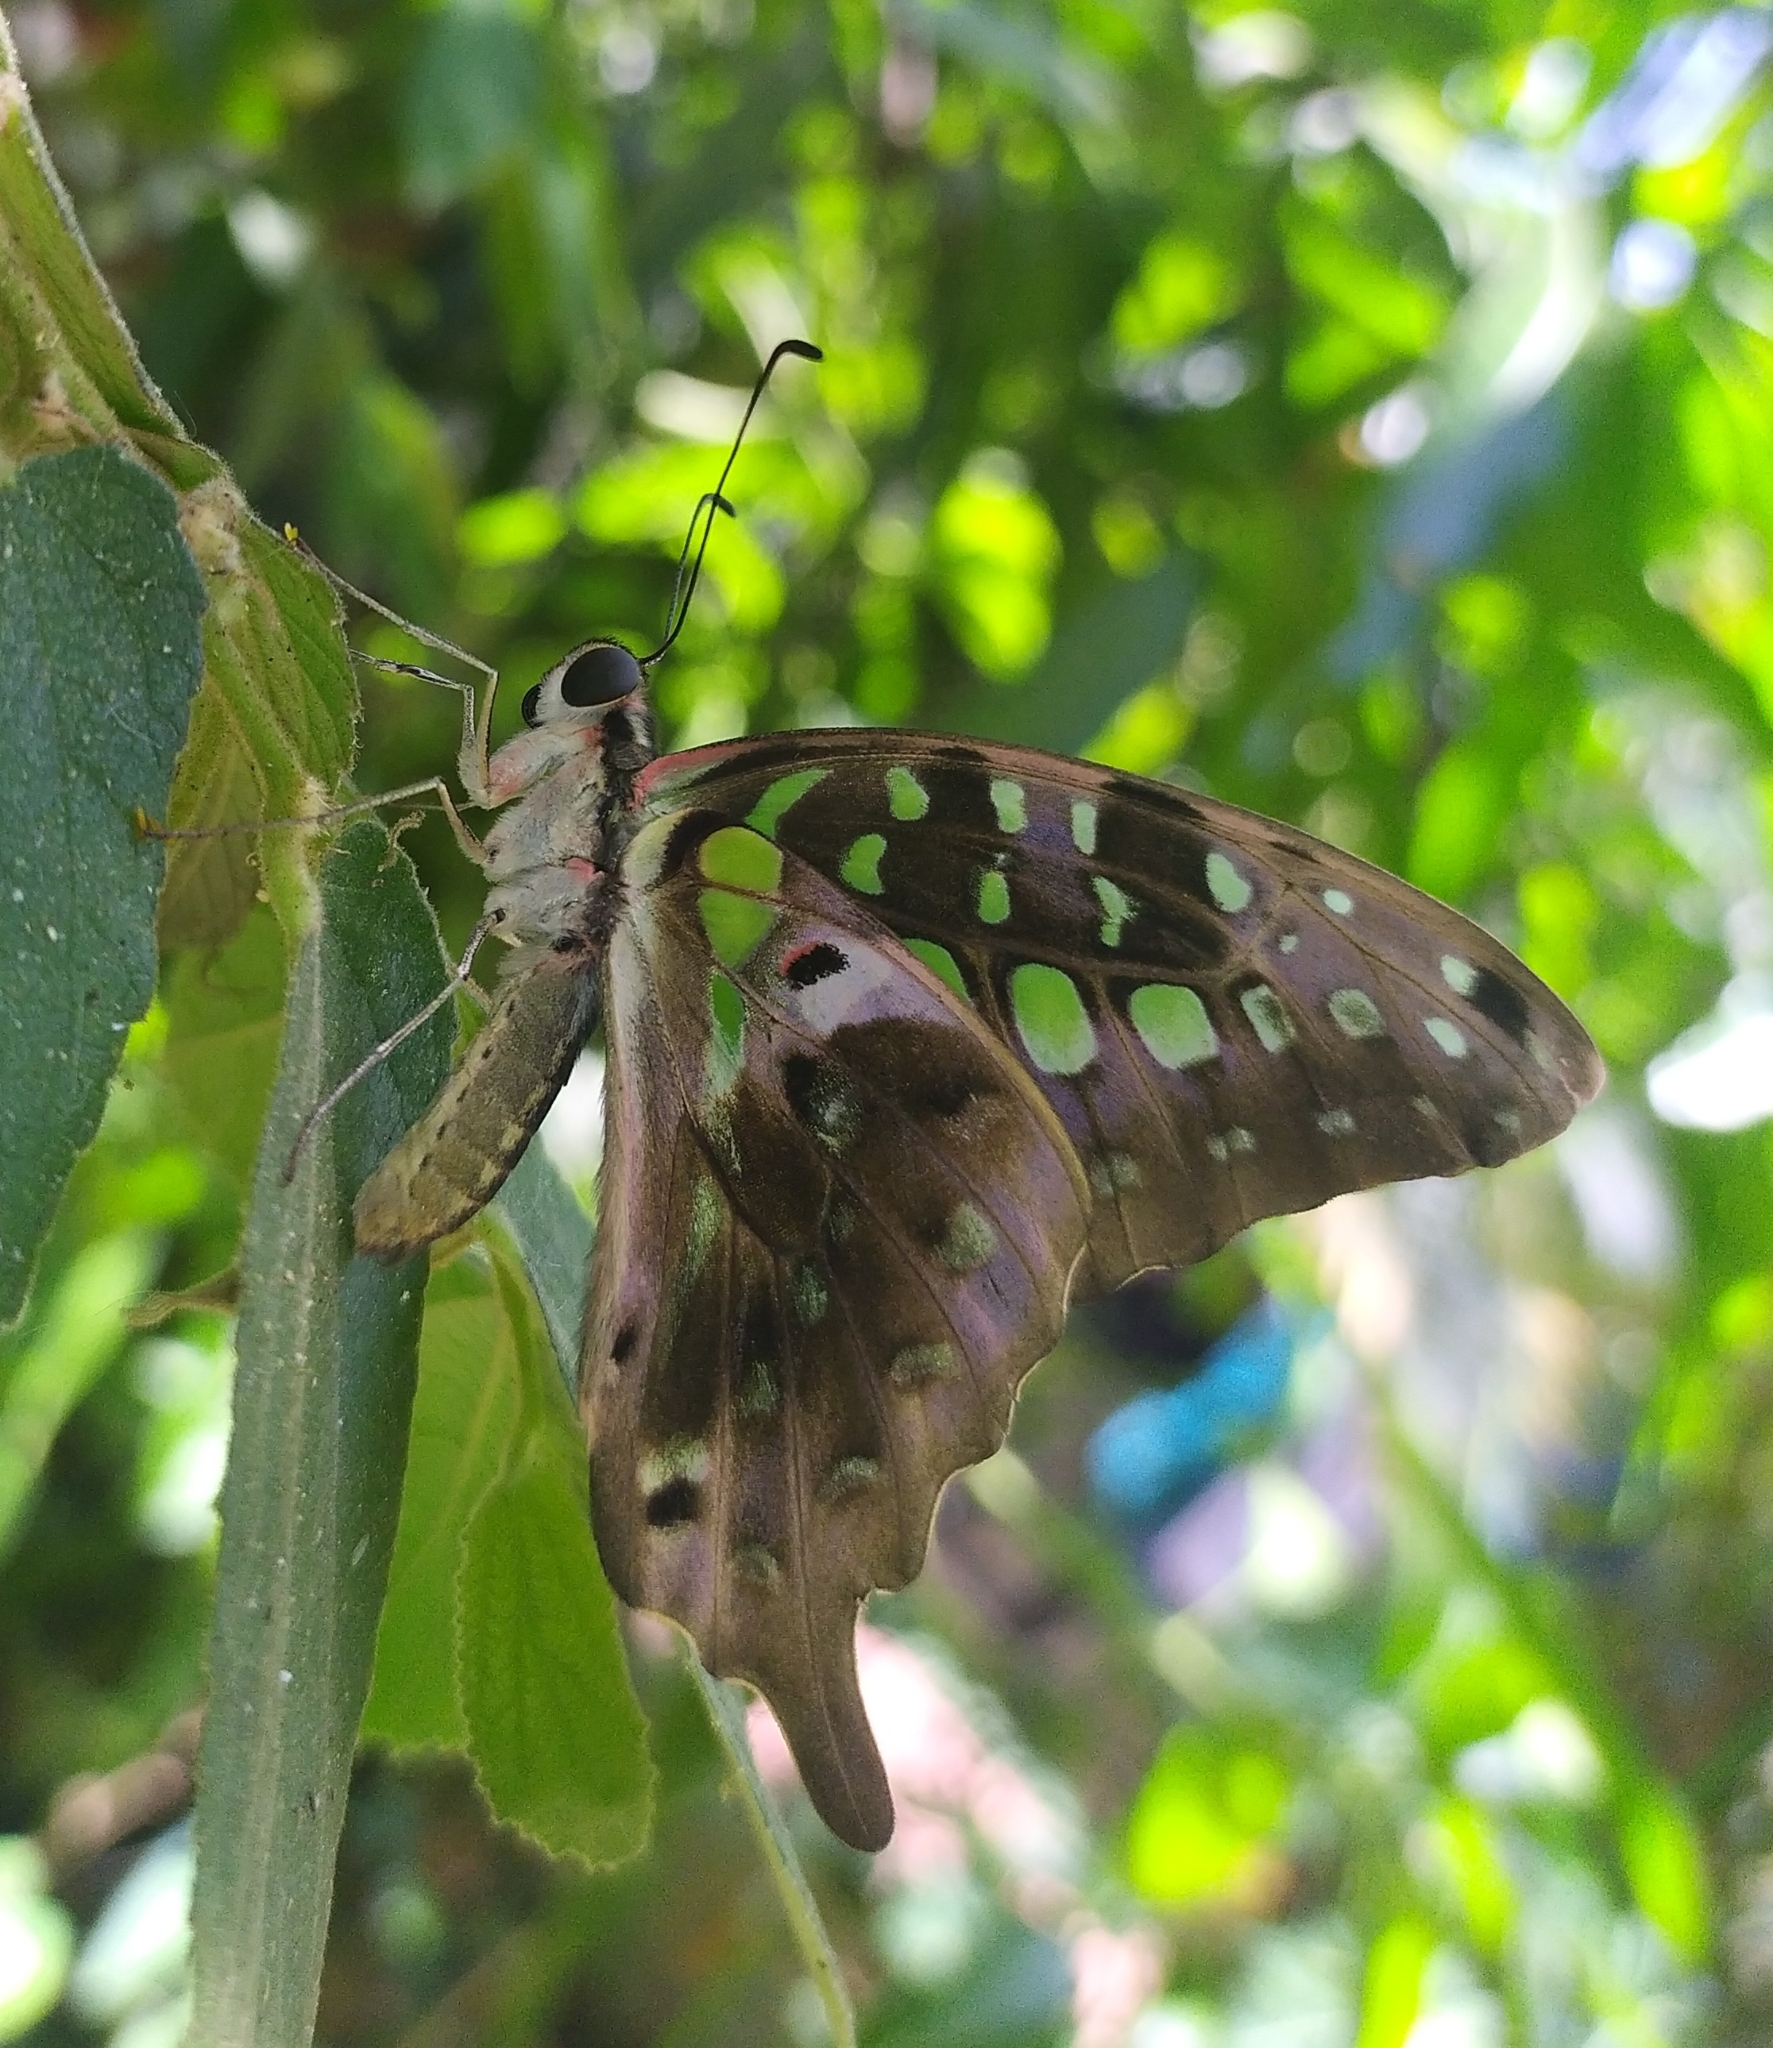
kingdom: Animalia
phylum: Arthropoda
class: Insecta
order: Lepidoptera
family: Papilionidae
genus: Graphium
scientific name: Graphium agamemnon
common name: Tailed jay
